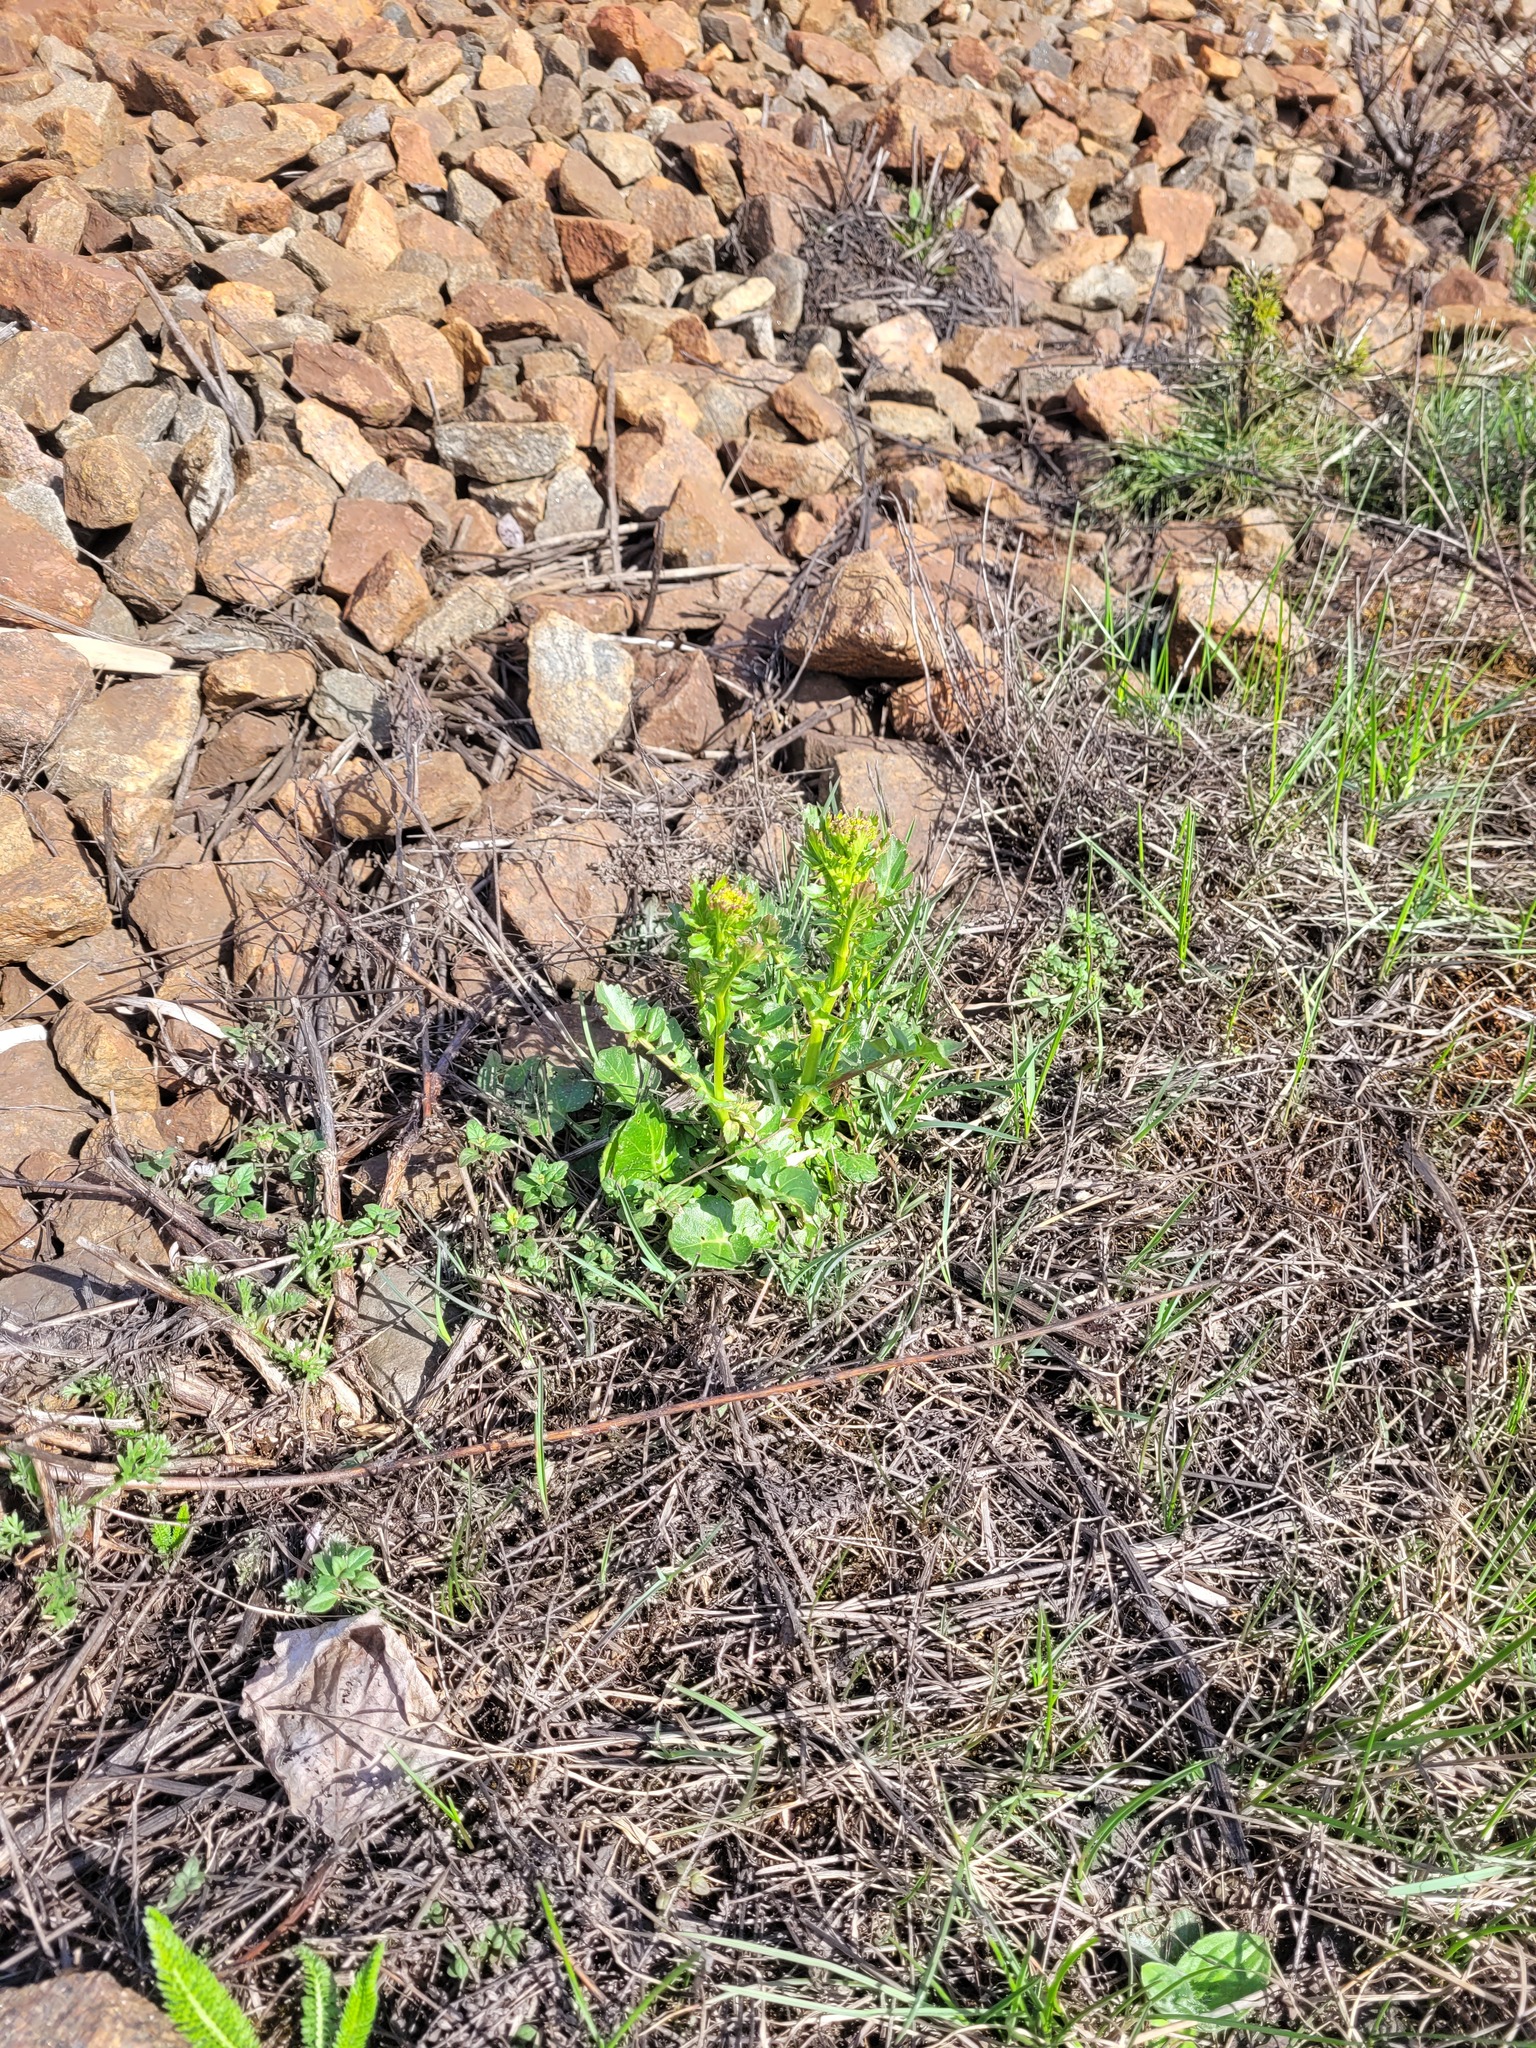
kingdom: Plantae
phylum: Tracheophyta
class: Magnoliopsida
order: Brassicales
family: Brassicaceae
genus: Barbarea
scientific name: Barbarea vulgaris
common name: Cressy-greens
